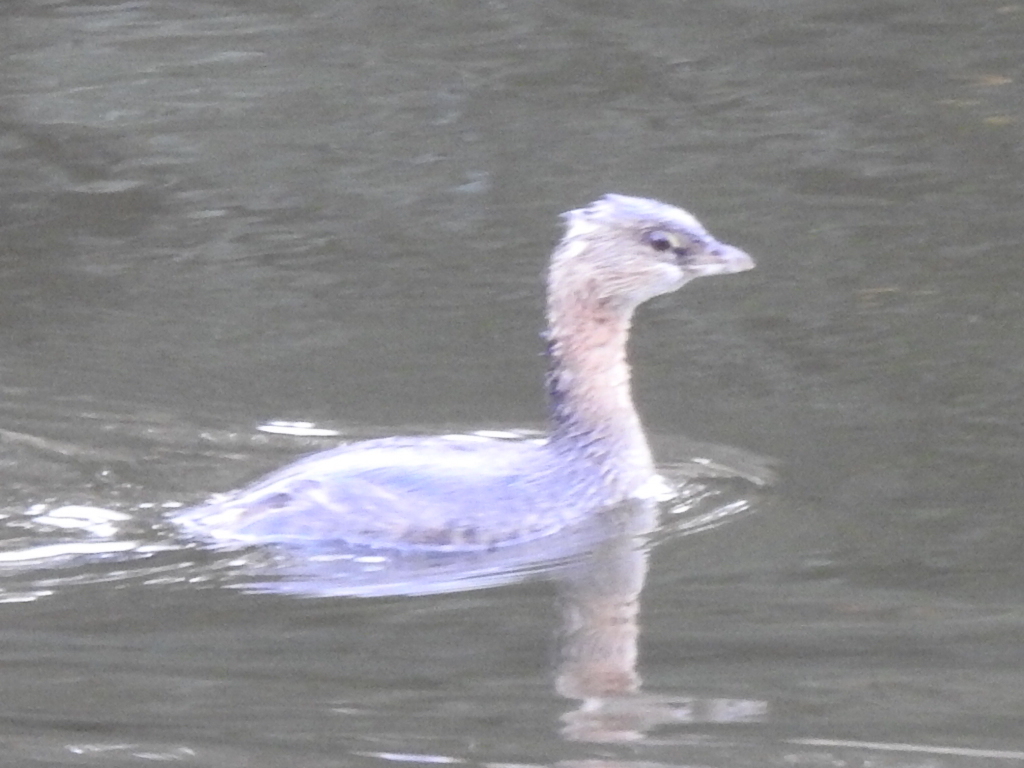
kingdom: Animalia
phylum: Chordata
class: Aves
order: Podicipediformes
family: Podicipedidae
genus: Podilymbus
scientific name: Podilymbus podiceps
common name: Pied-billed grebe
